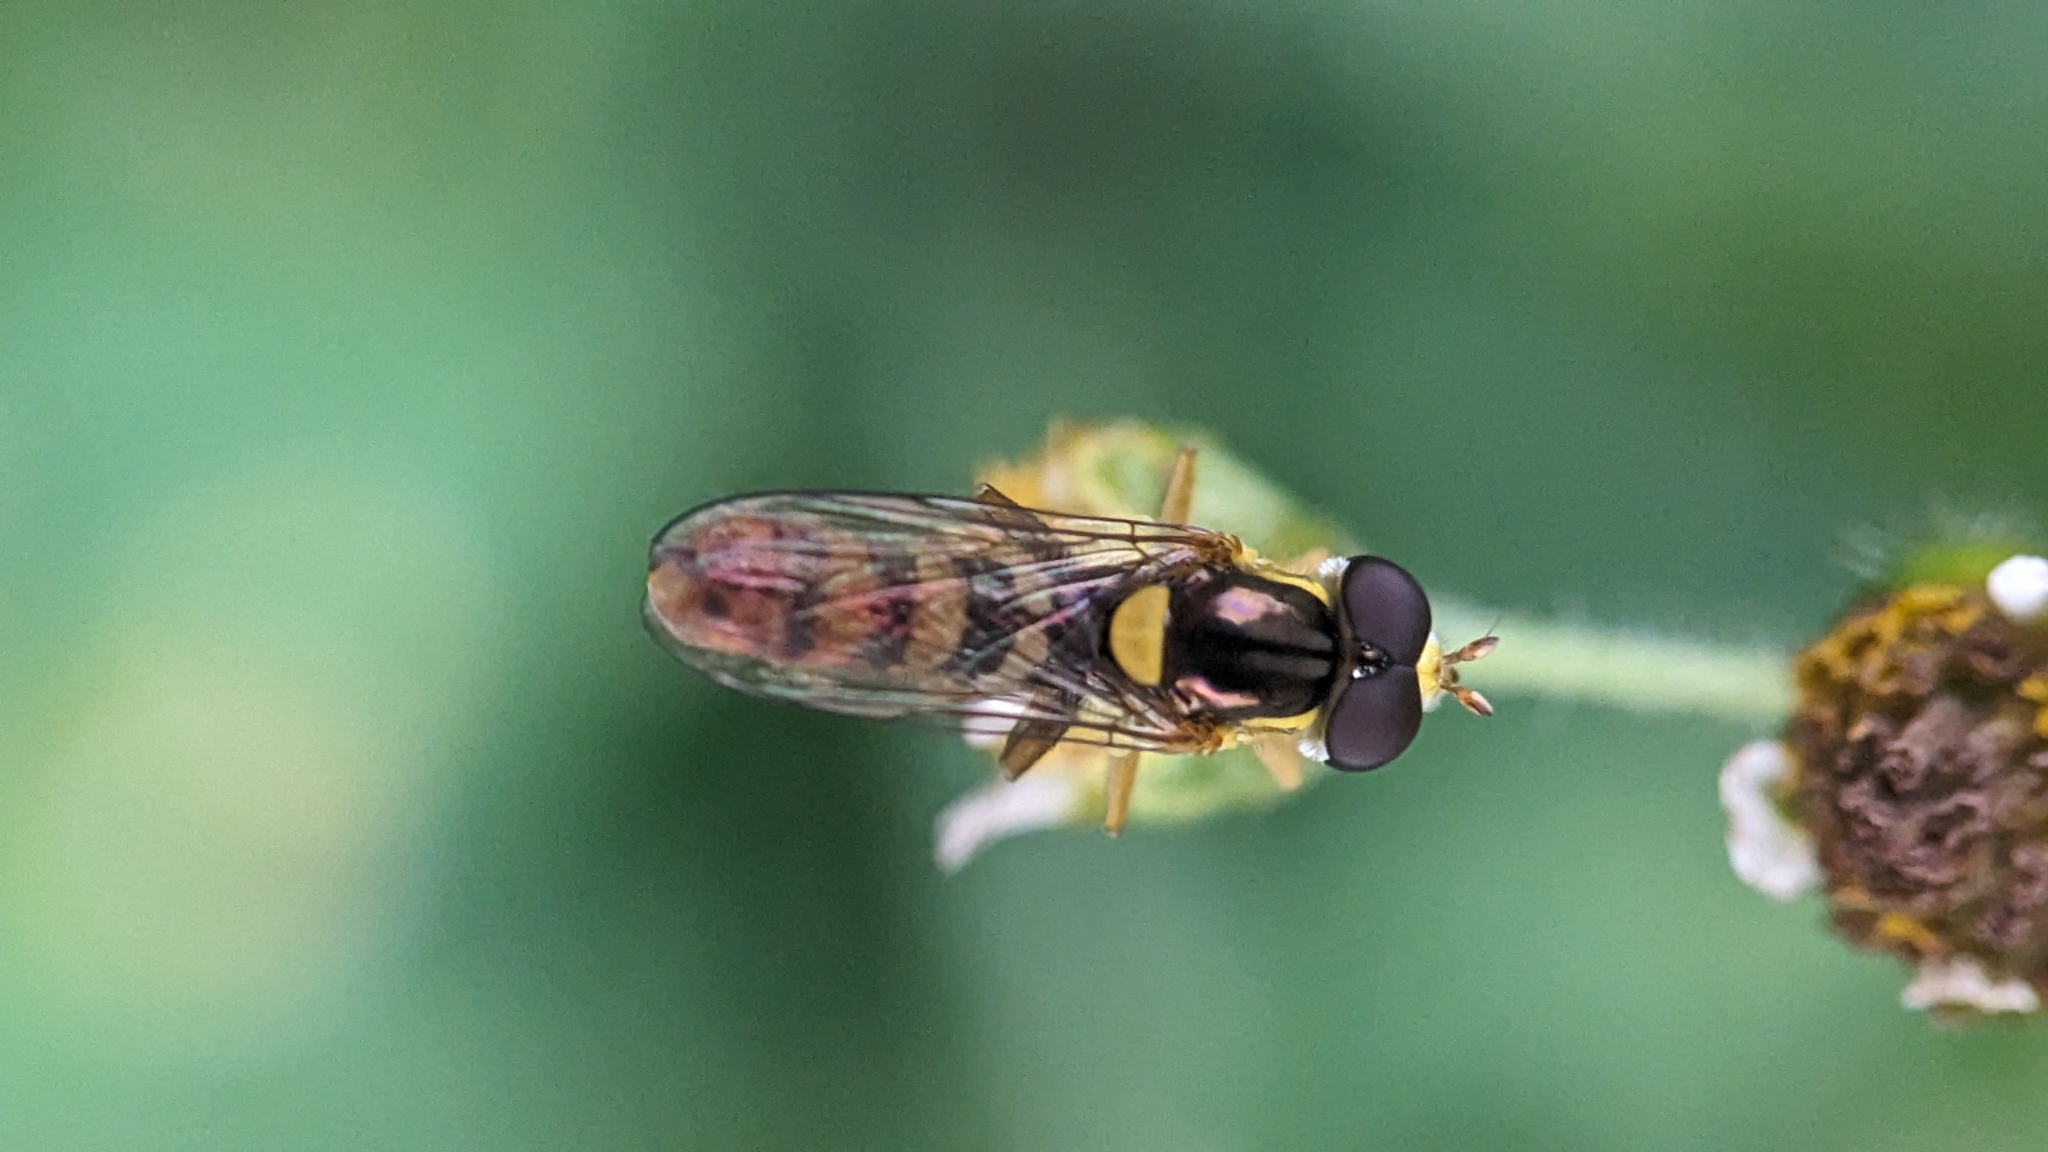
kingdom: Animalia
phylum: Arthropoda
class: Insecta
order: Diptera
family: Syrphidae
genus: Sphaerophoria
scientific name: Sphaerophoria rueppellii
